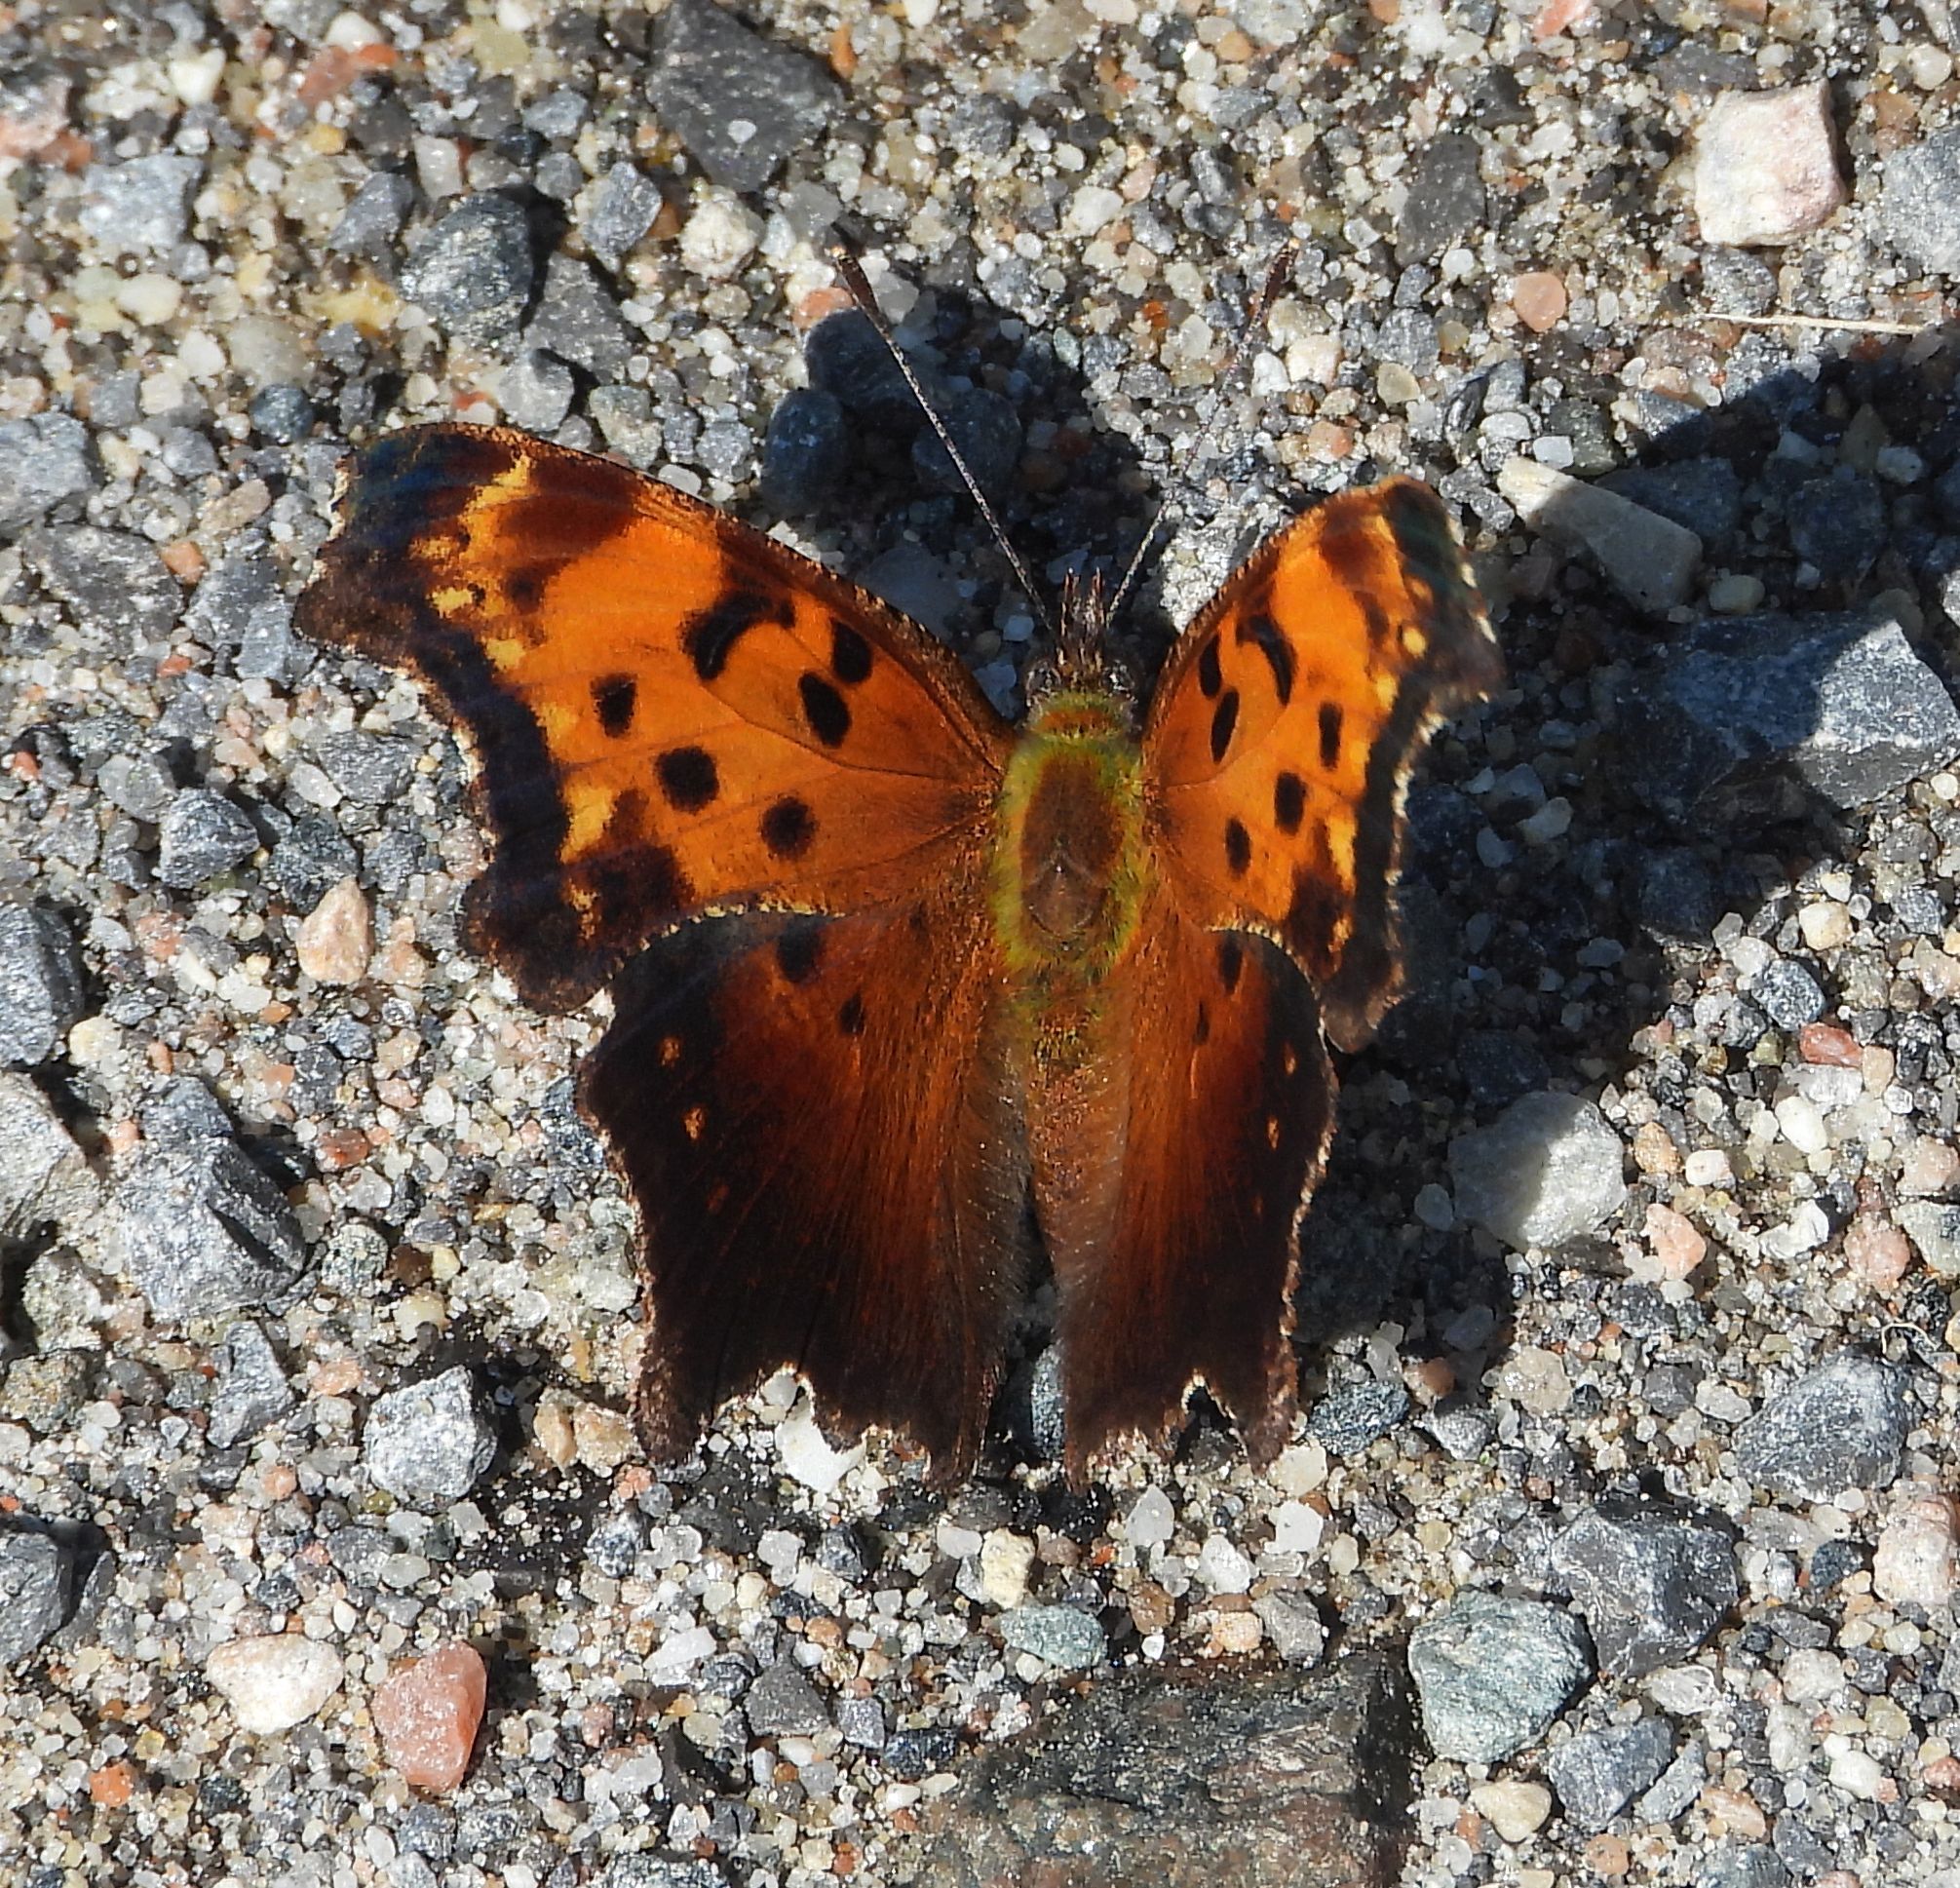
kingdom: Animalia
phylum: Arthropoda
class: Insecta
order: Lepidoptera
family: Nymphalidae
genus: Polygonia
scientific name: Polygonia progne
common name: Gray comma
